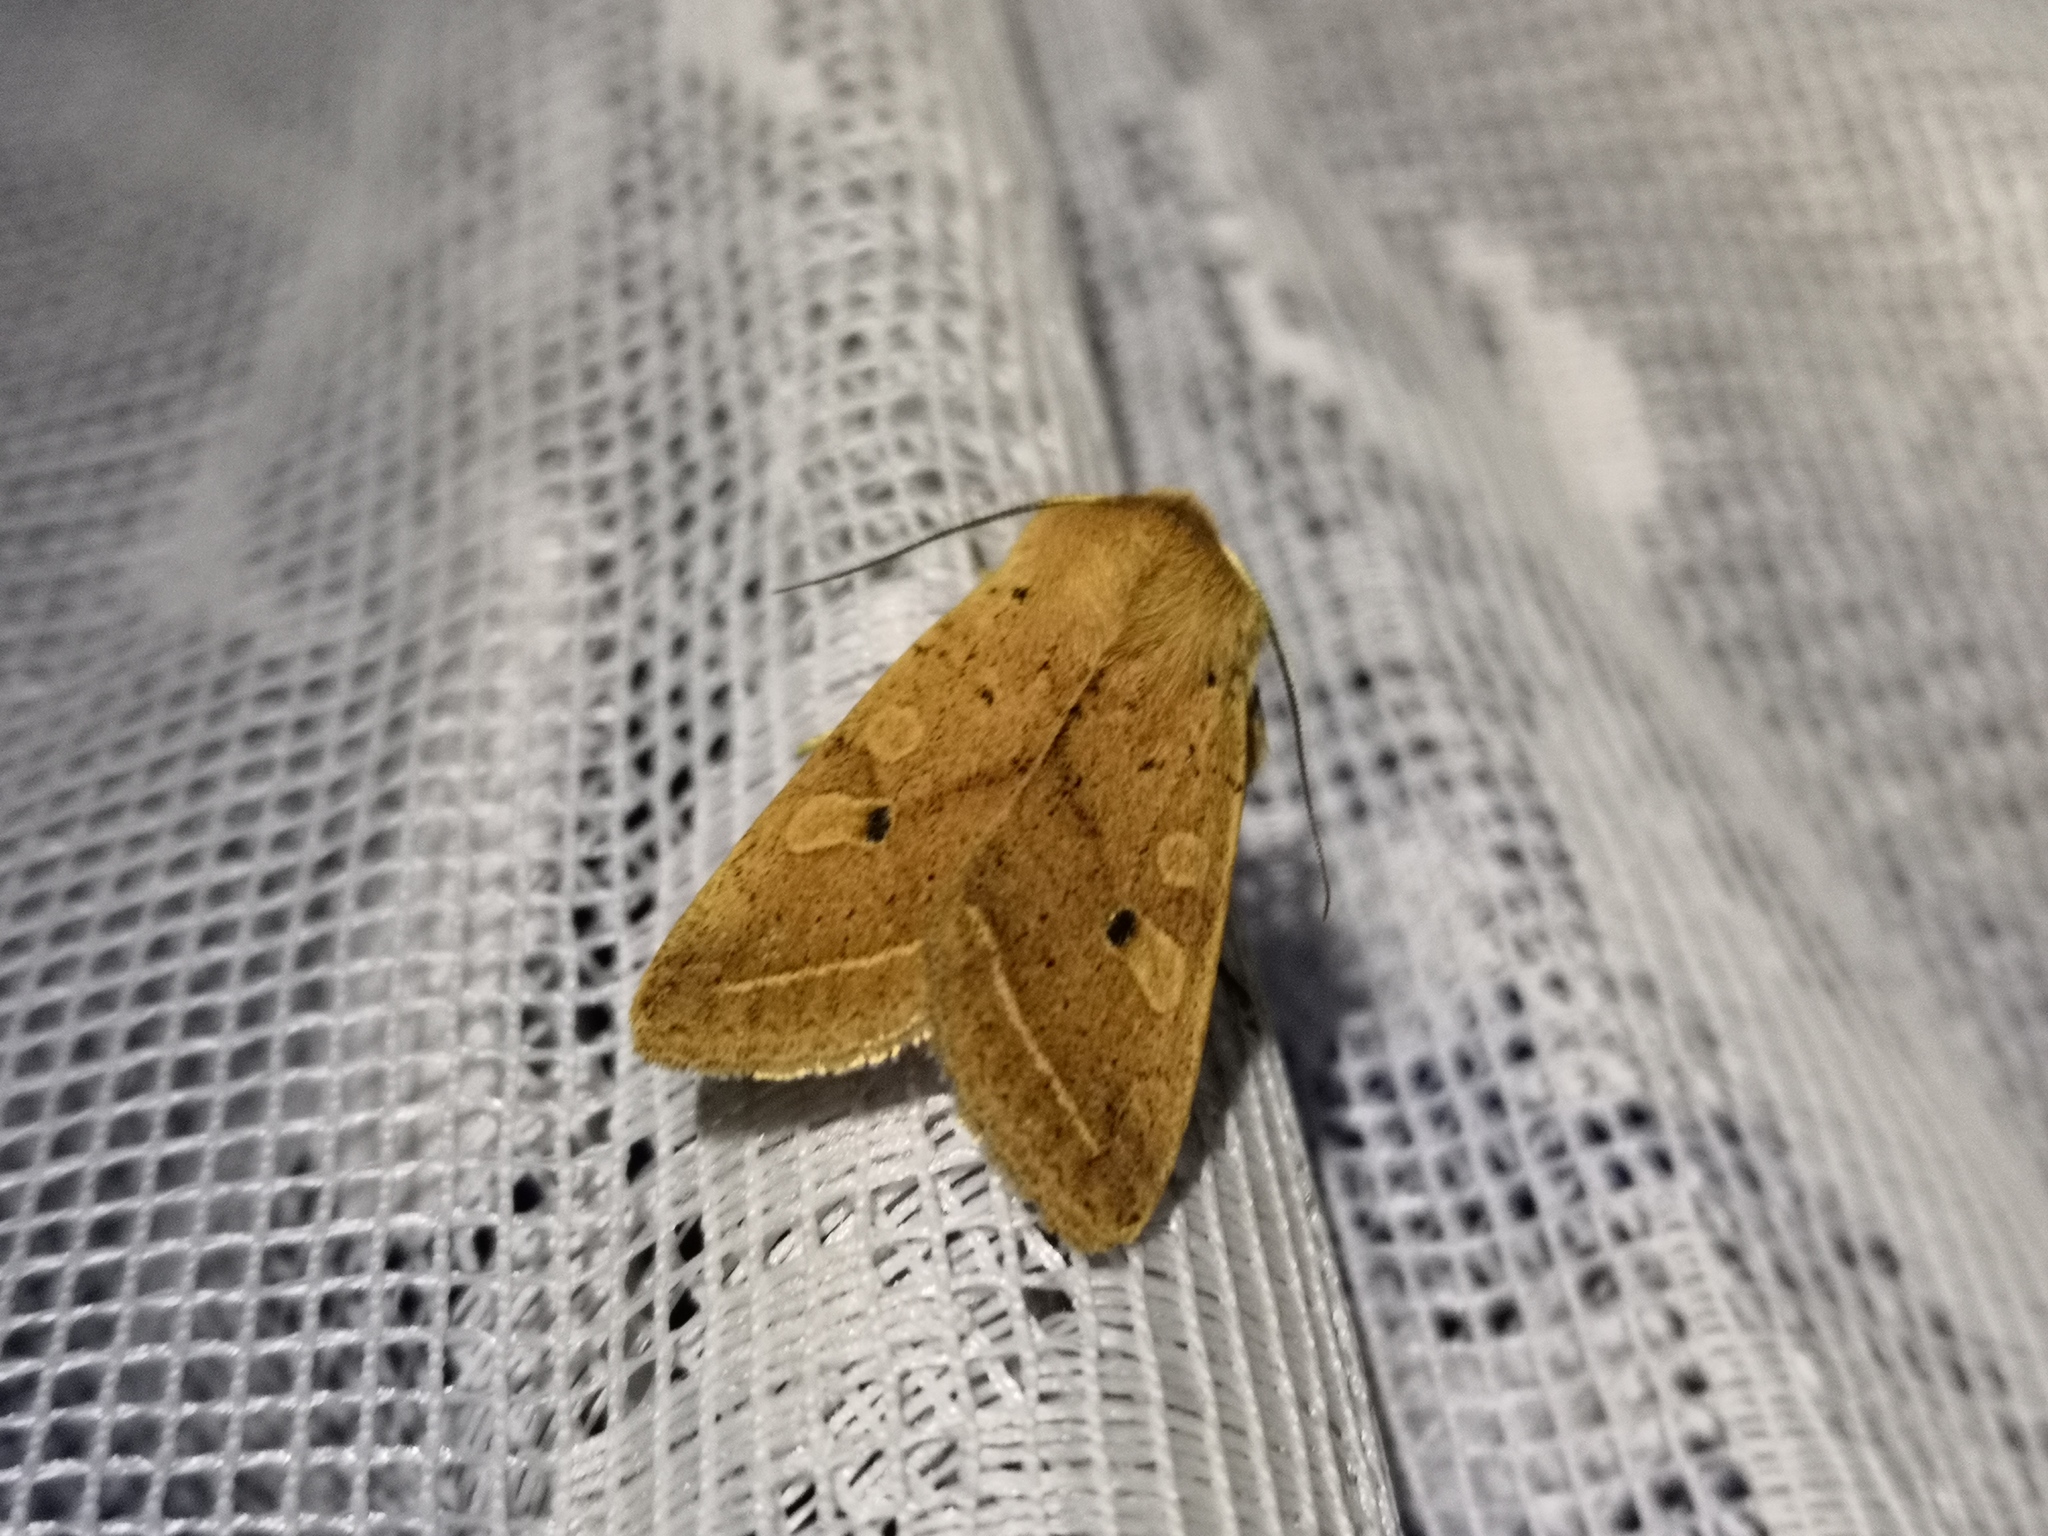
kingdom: Animalia
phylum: Arthropoda
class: Insecta
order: Lepidoptera
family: Noctuidae
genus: Agrochola
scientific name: Agrochola macilenta
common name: Yellow-line quaker
